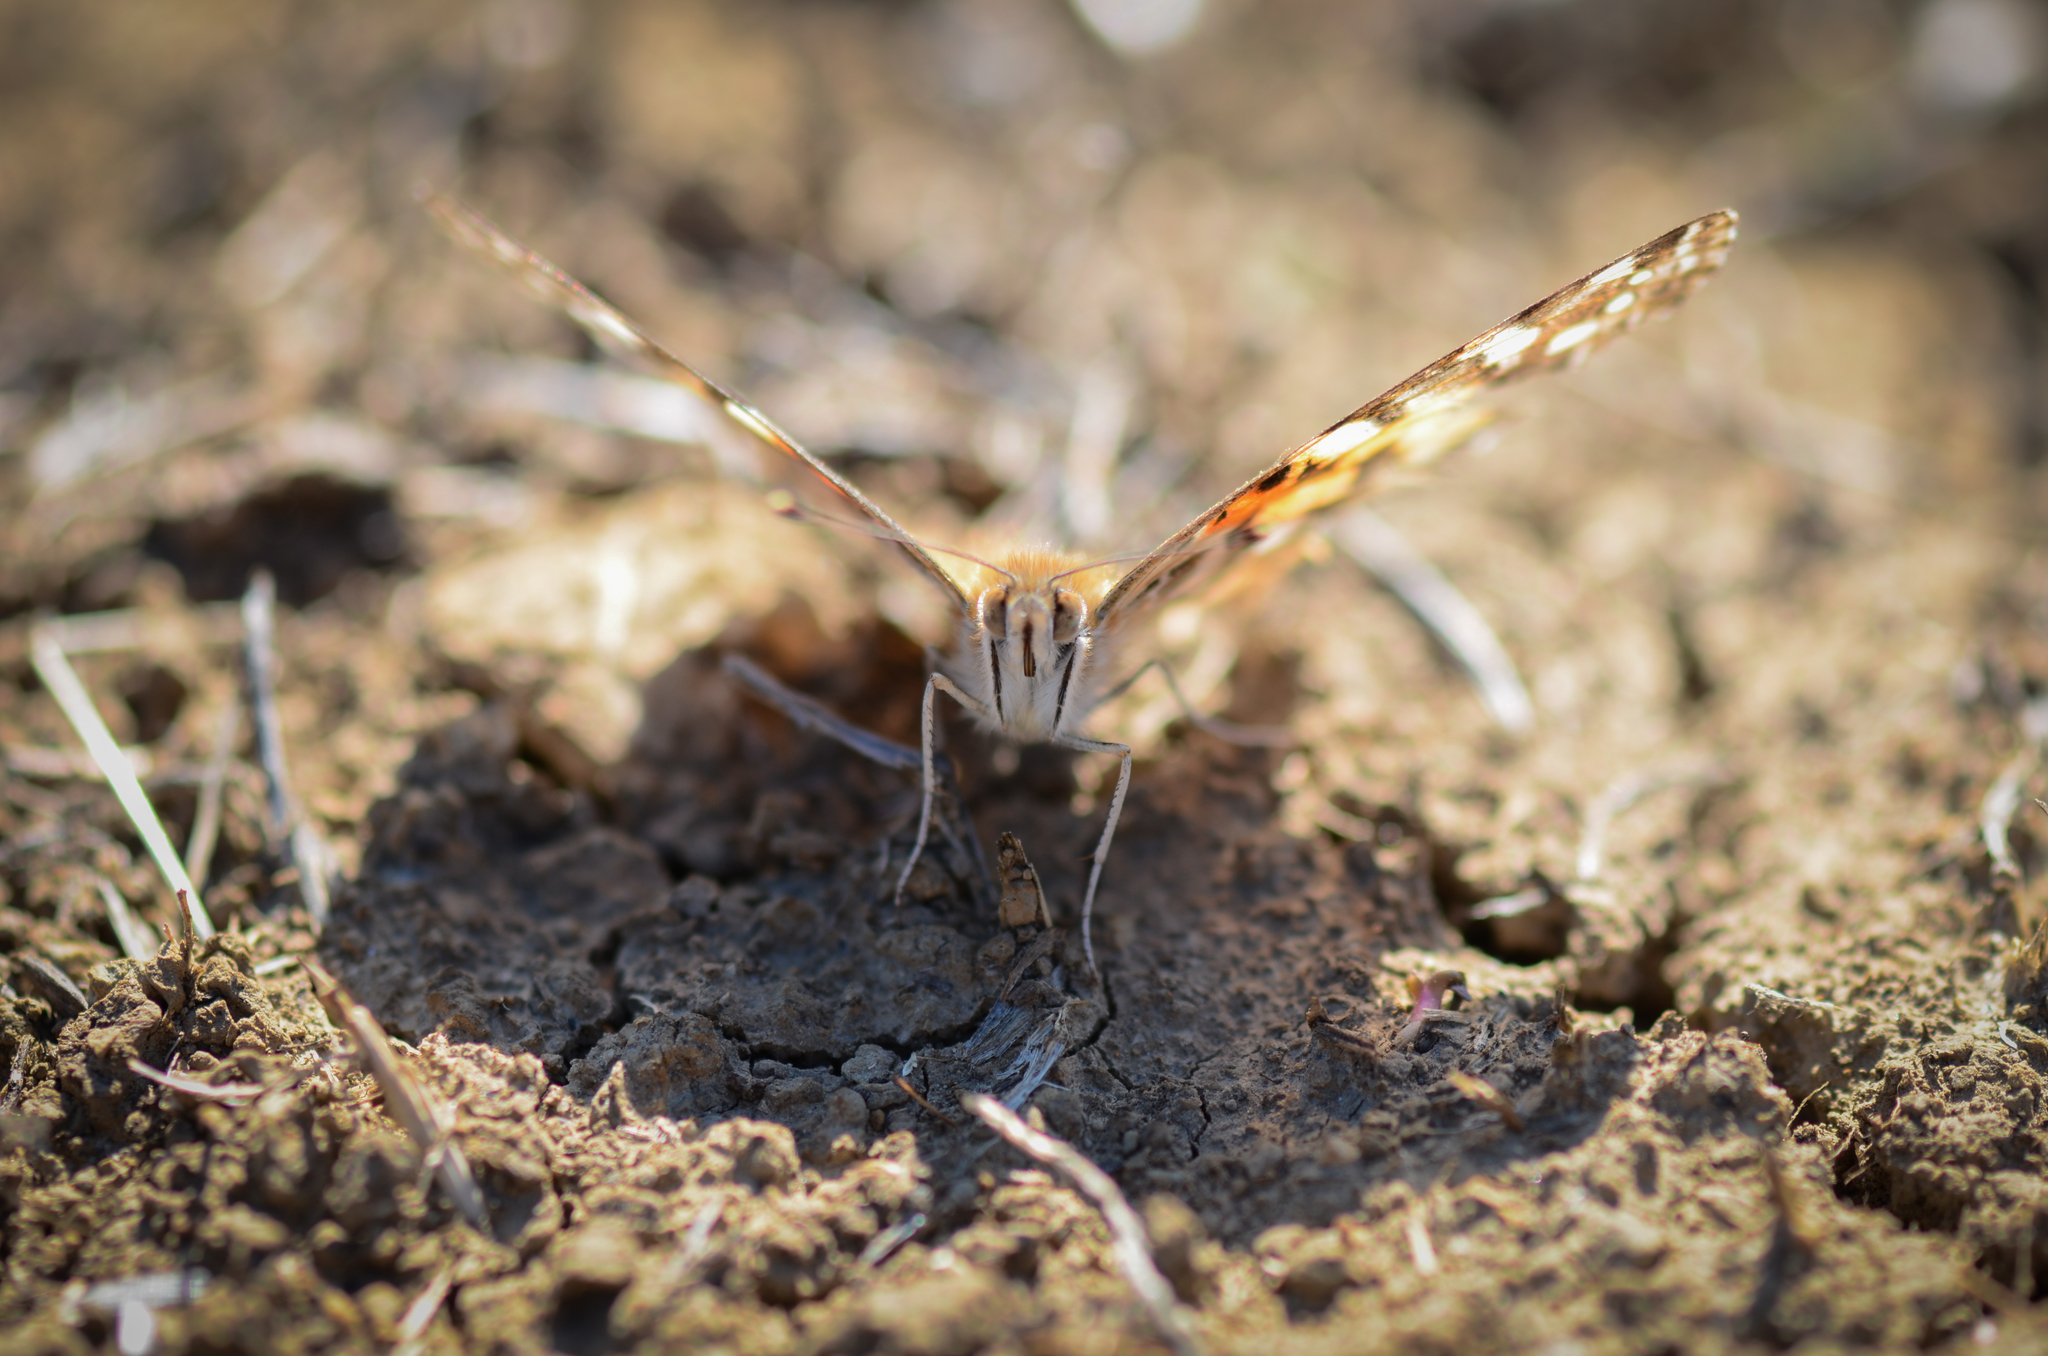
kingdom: Animalia
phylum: Arthropoda
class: Insecta
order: Lepidoptera
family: Nymphalidae
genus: Vanessa
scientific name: Vanessa cardui
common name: Painted lady
